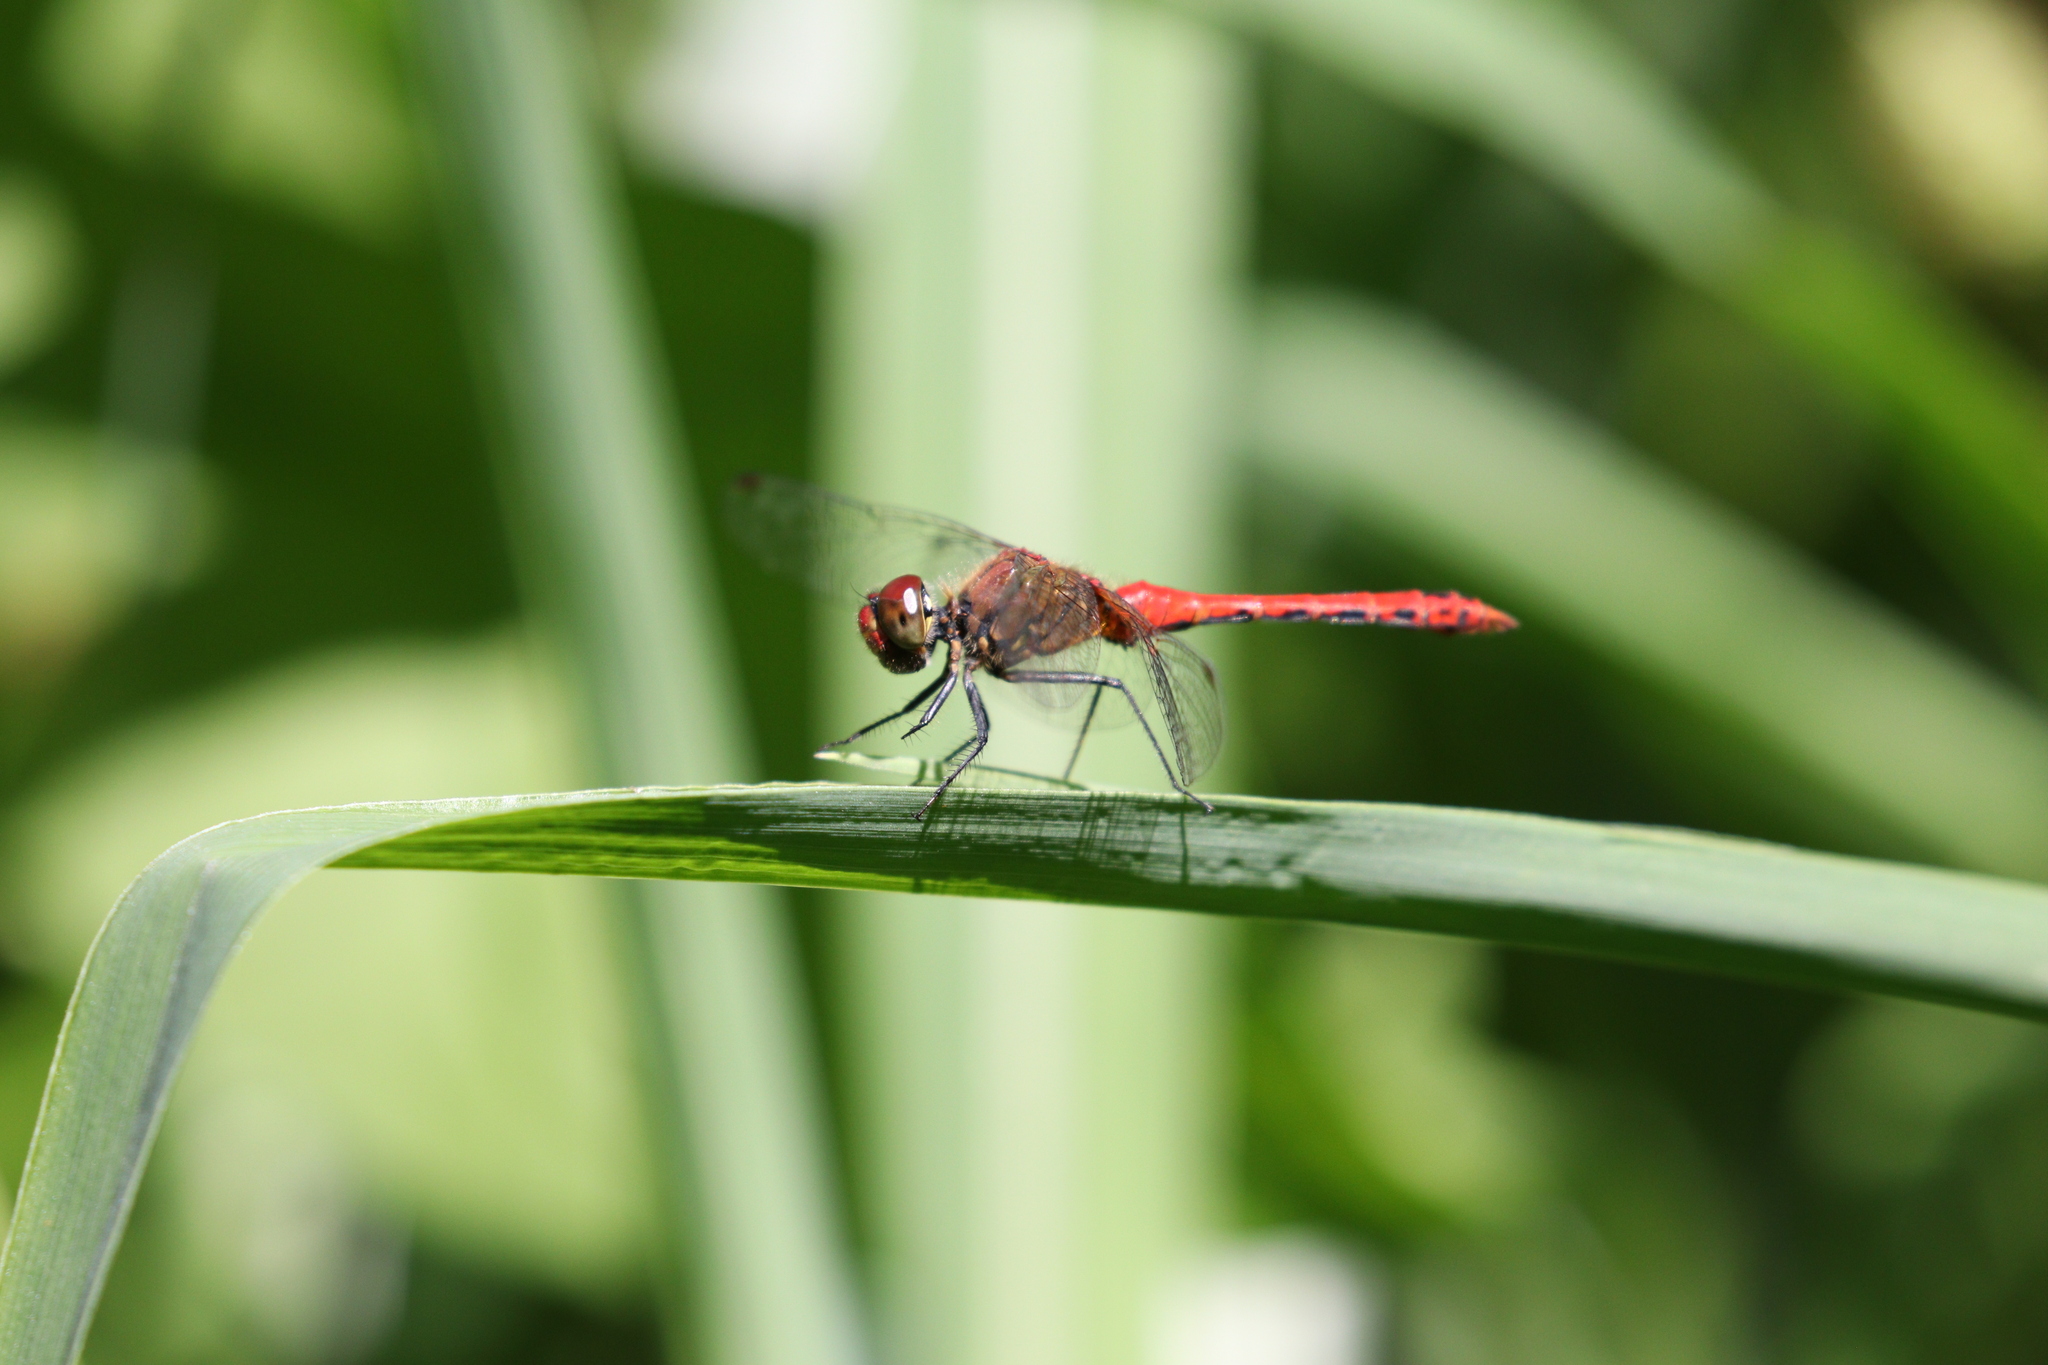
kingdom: Animalia
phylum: Arthropoda
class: Insecta
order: Odonata
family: Libellulidae
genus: Sympetrum
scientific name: Sympetrum sanguineum
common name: Ruddy darter
